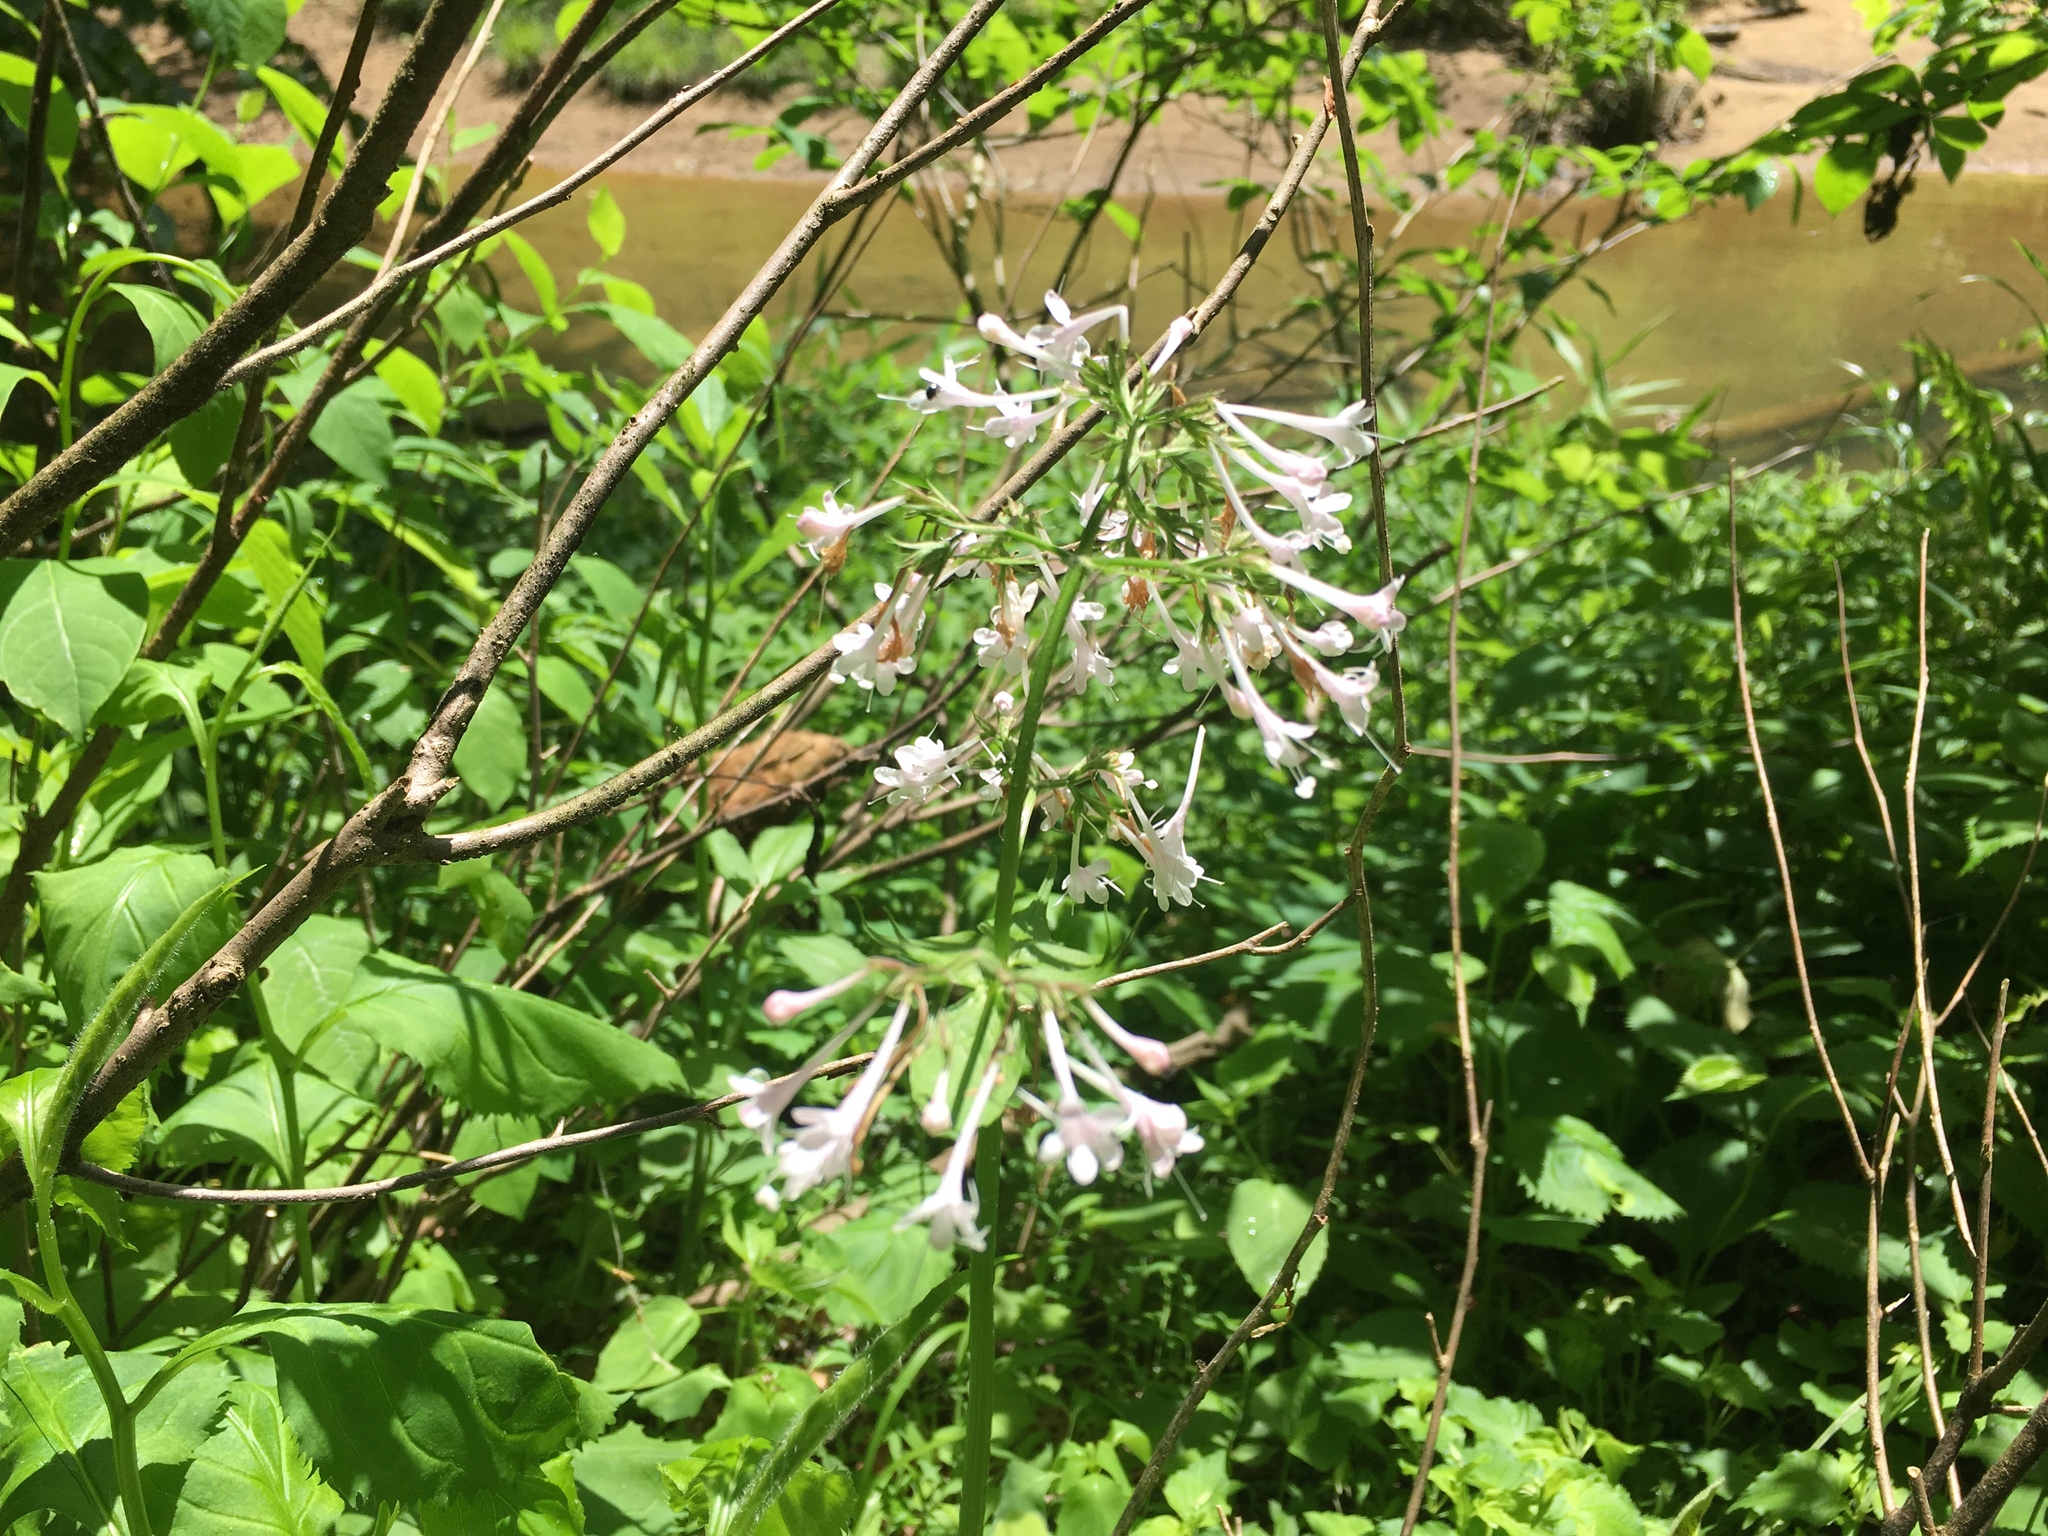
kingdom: Plantae
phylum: Tracheophyta
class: Magnoliopsida
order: Dipsacales
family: Caprifoliaceae
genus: Valeriana
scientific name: Valeriana pauciflora
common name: Long-tube valeriana
